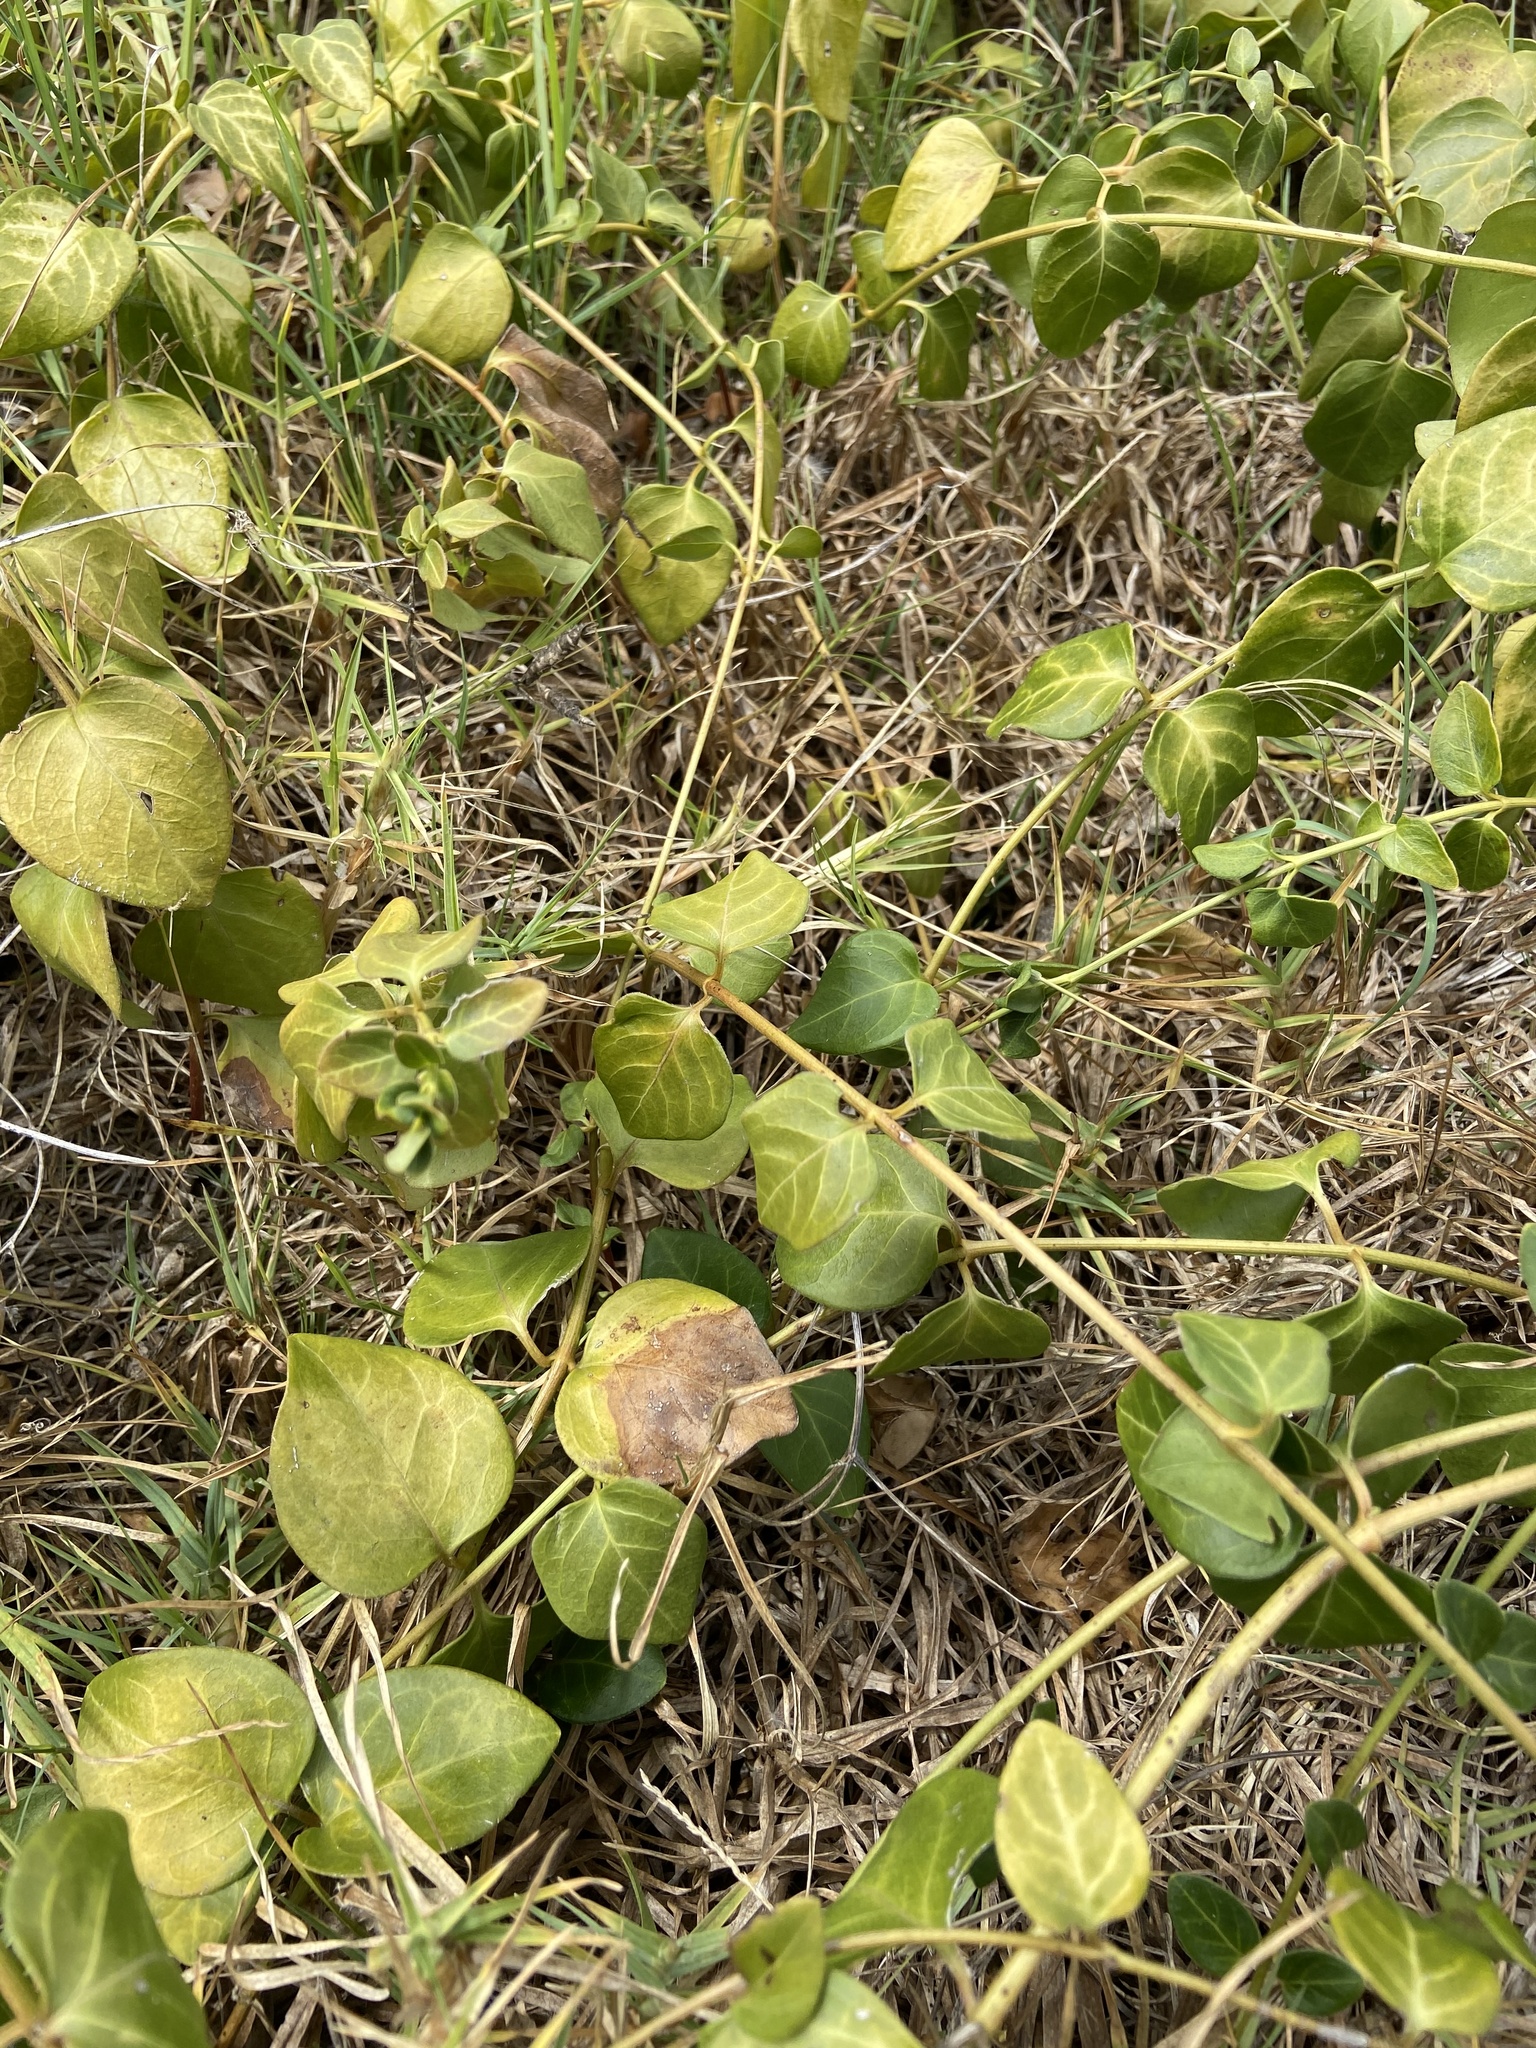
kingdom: Plantae
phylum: Tracheophyta
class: Magnoliopsida
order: Gentianales
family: Apocynaceae
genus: Vinca
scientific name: Vinca major
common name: Greater periwinkle
